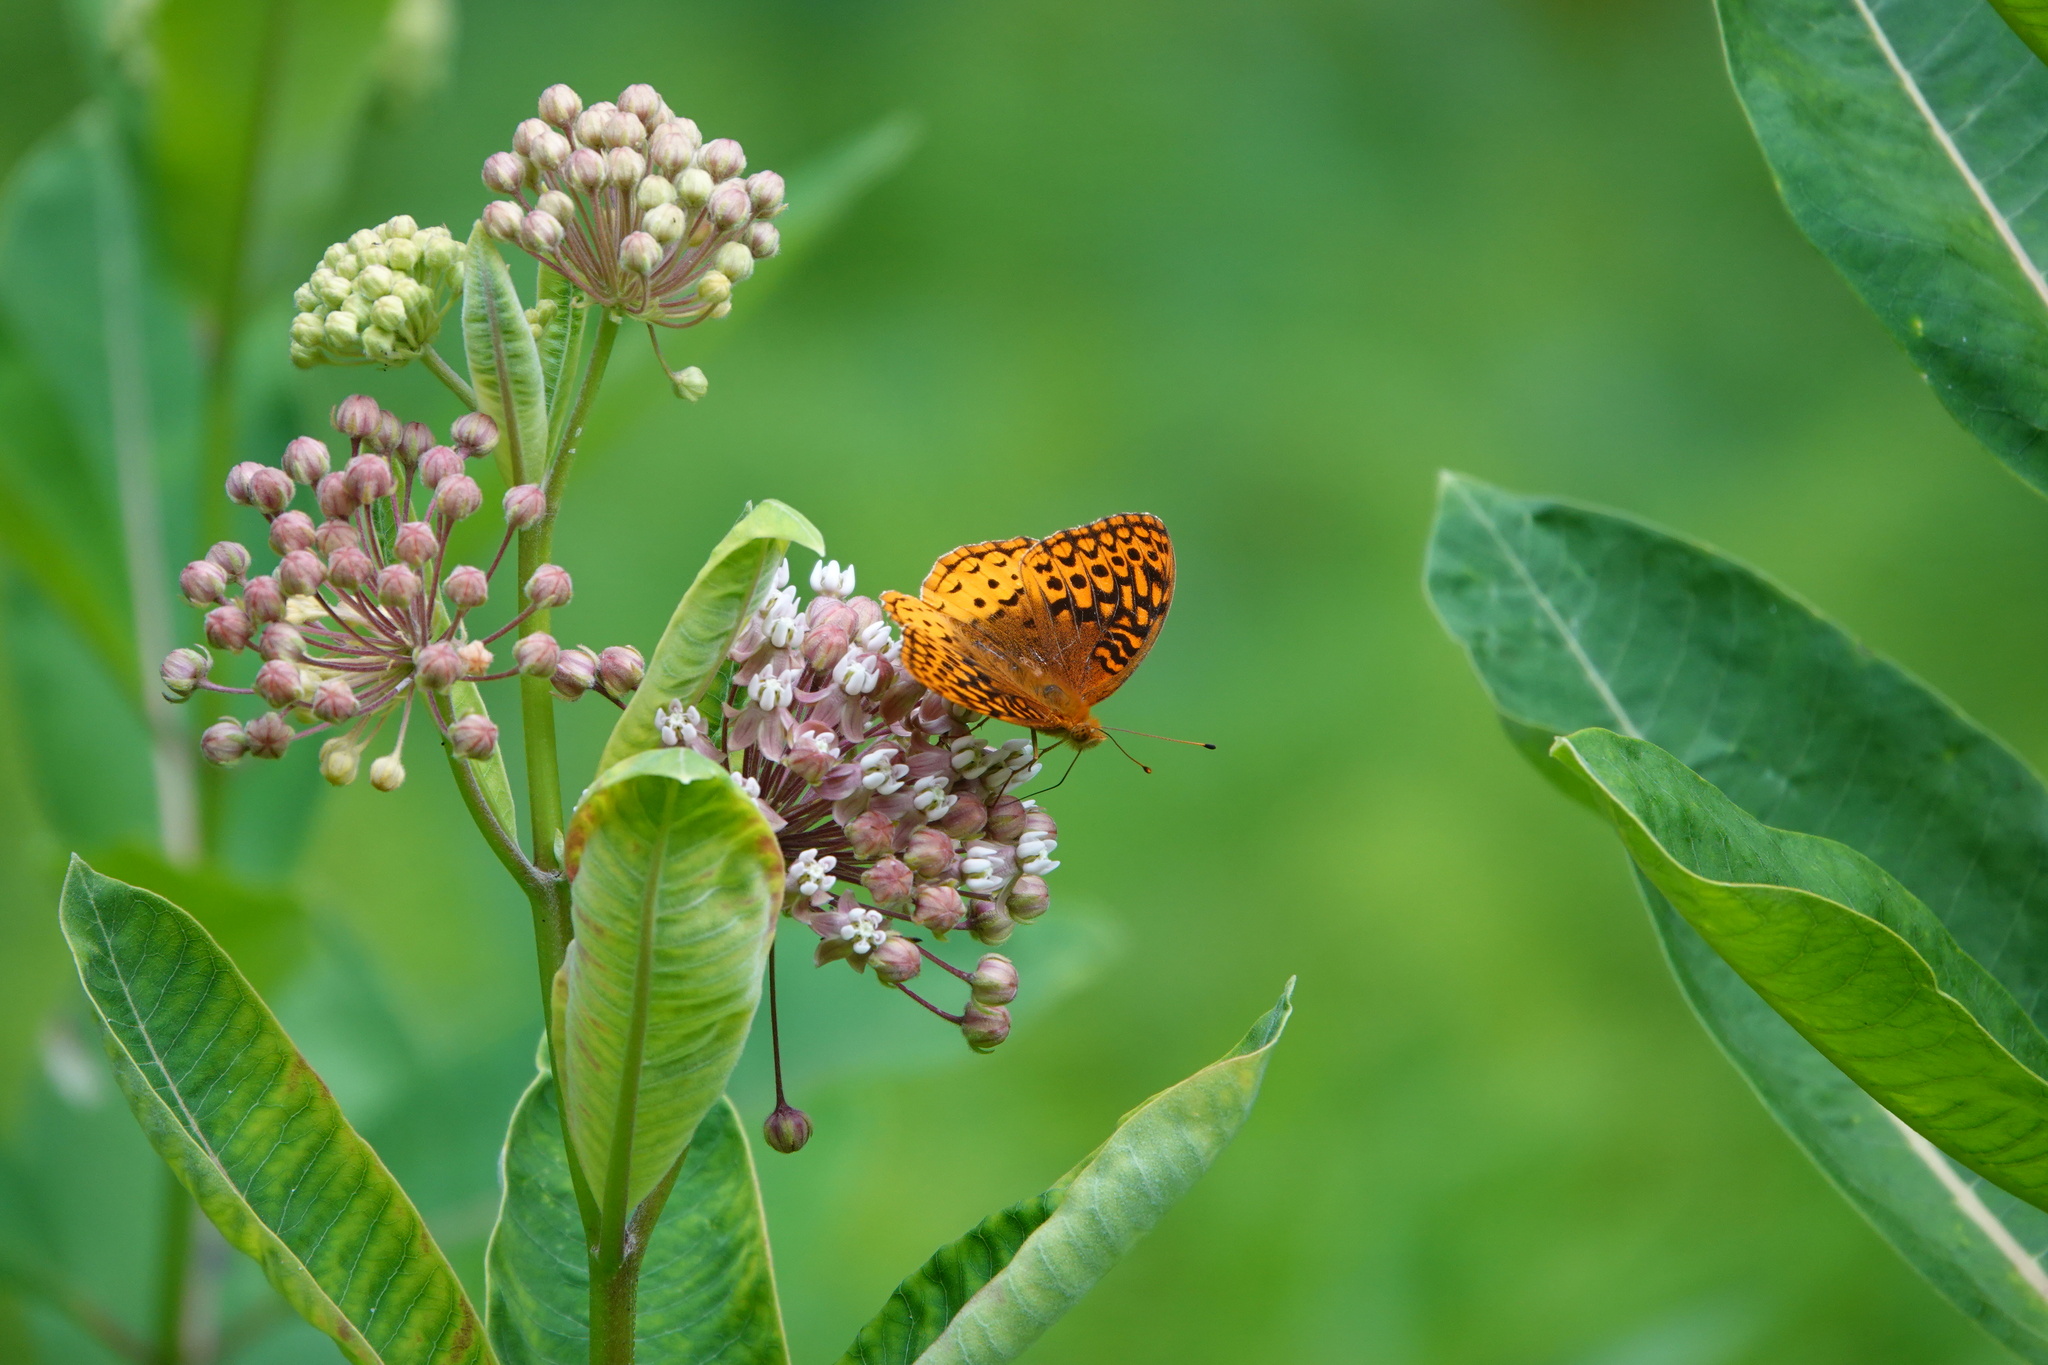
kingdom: Animalia
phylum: Arthropoda
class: Insecta
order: Lepidoptera
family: Nymphalidae
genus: Speyeria
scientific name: Speyeria cybele
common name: Great spangled fritillary
